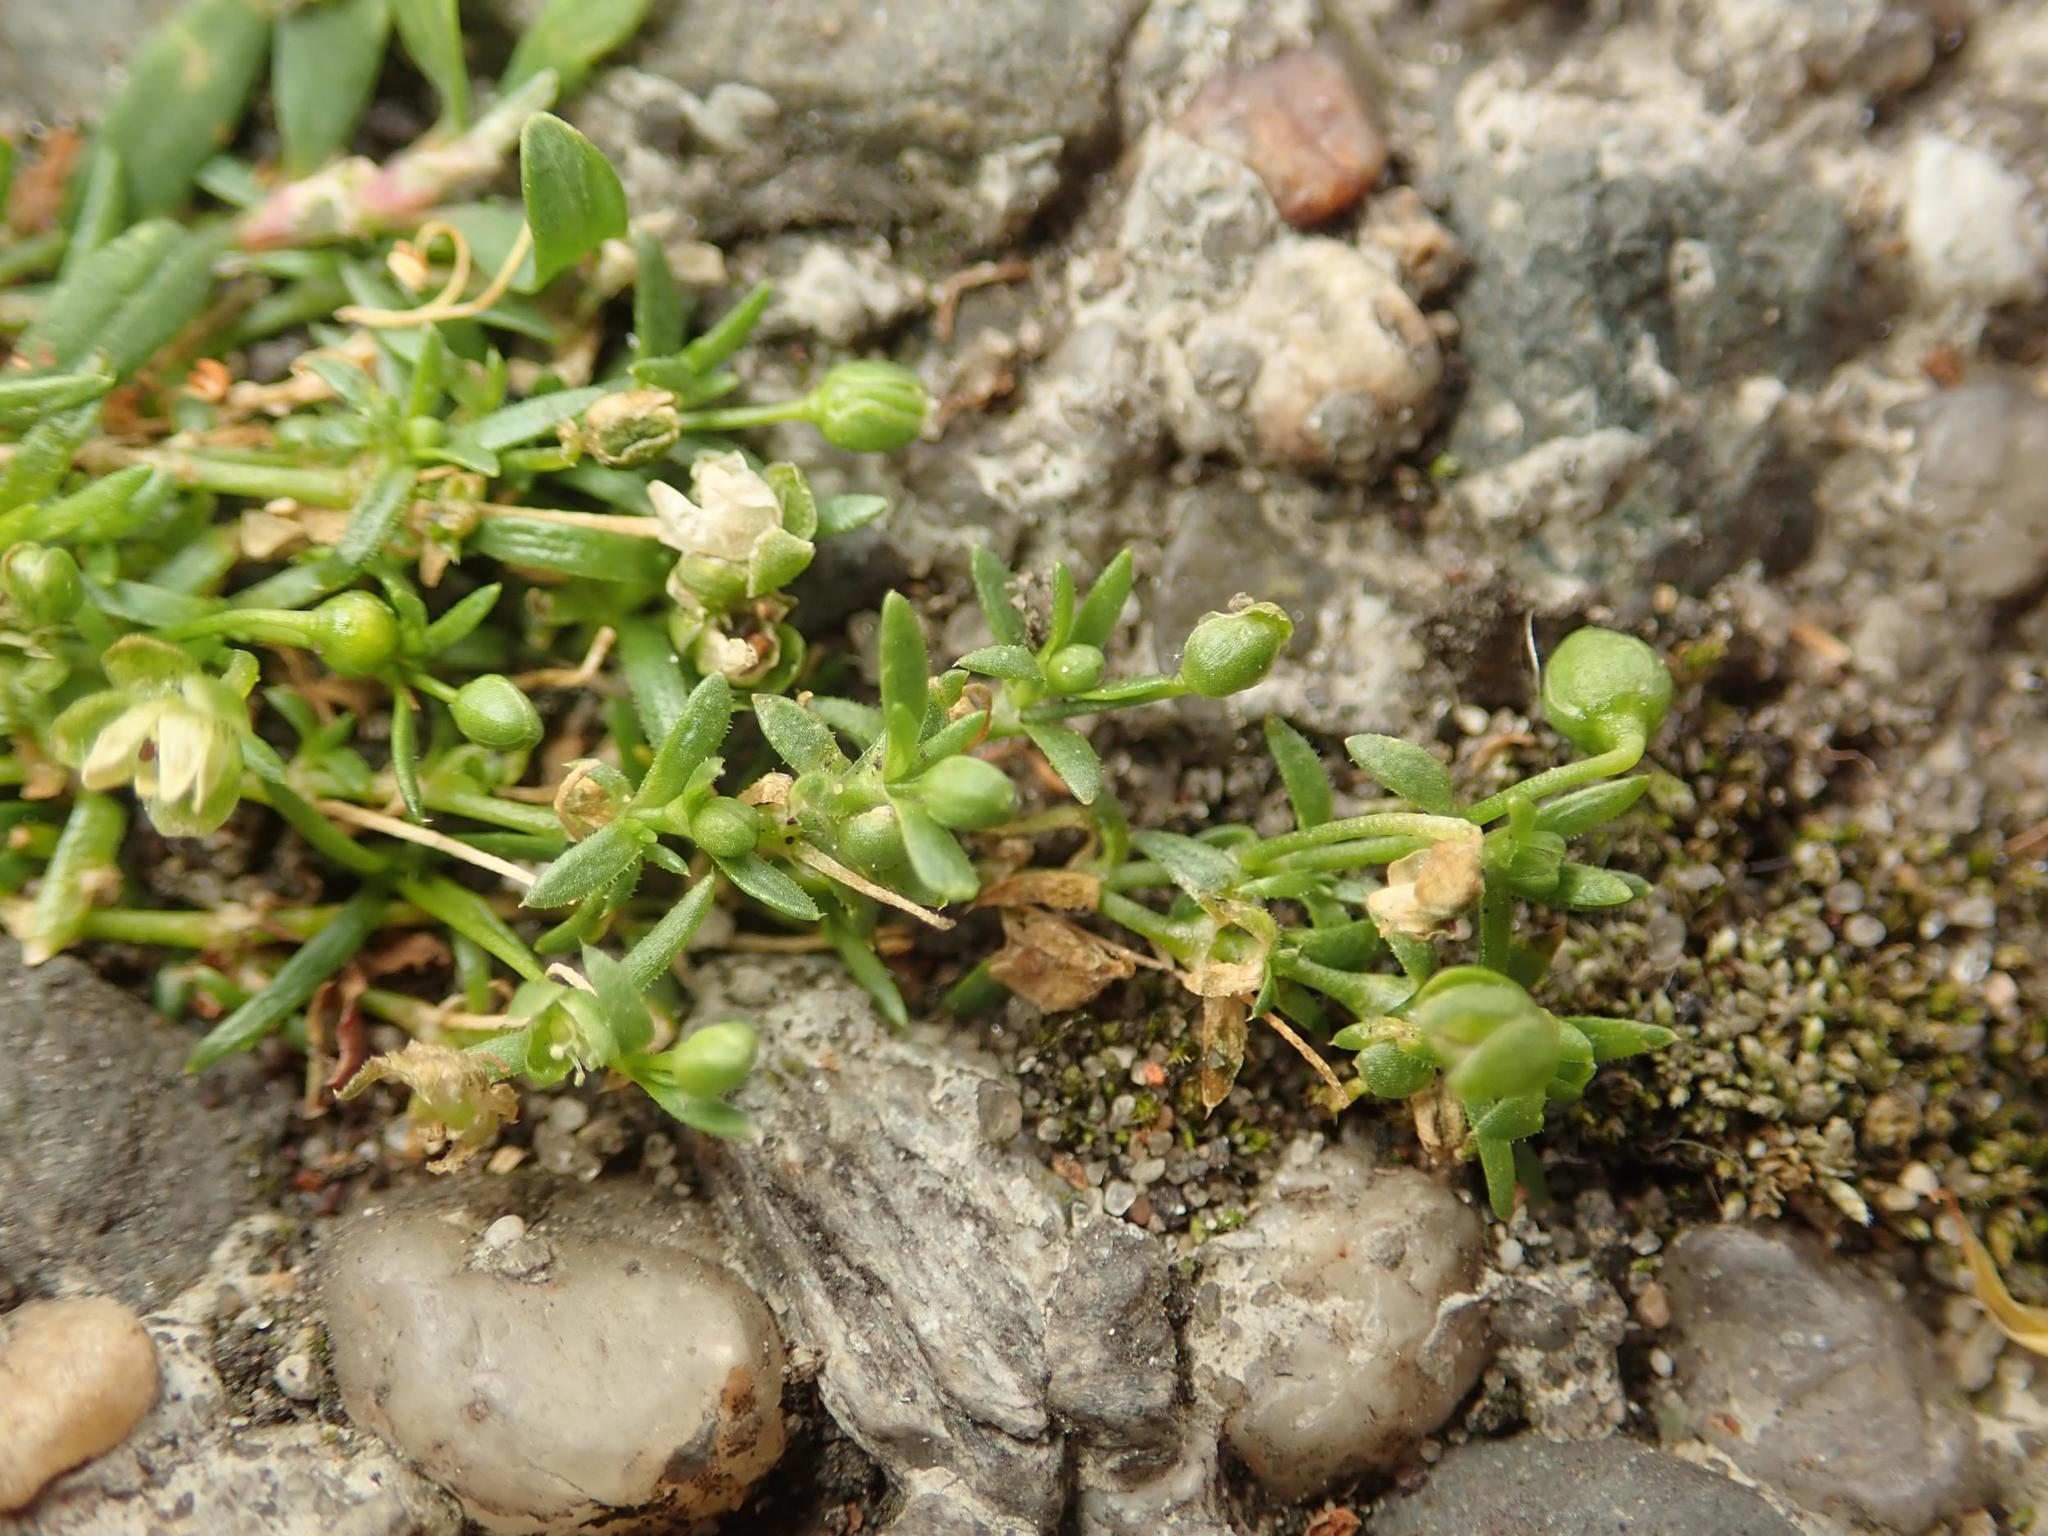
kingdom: Plantae
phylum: Tracheophyta
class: Magnoliopsida
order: Caryophyllales
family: Caryophyllaceae
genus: Sagina
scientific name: Sagina procumbens
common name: Procumbent pearlwort
